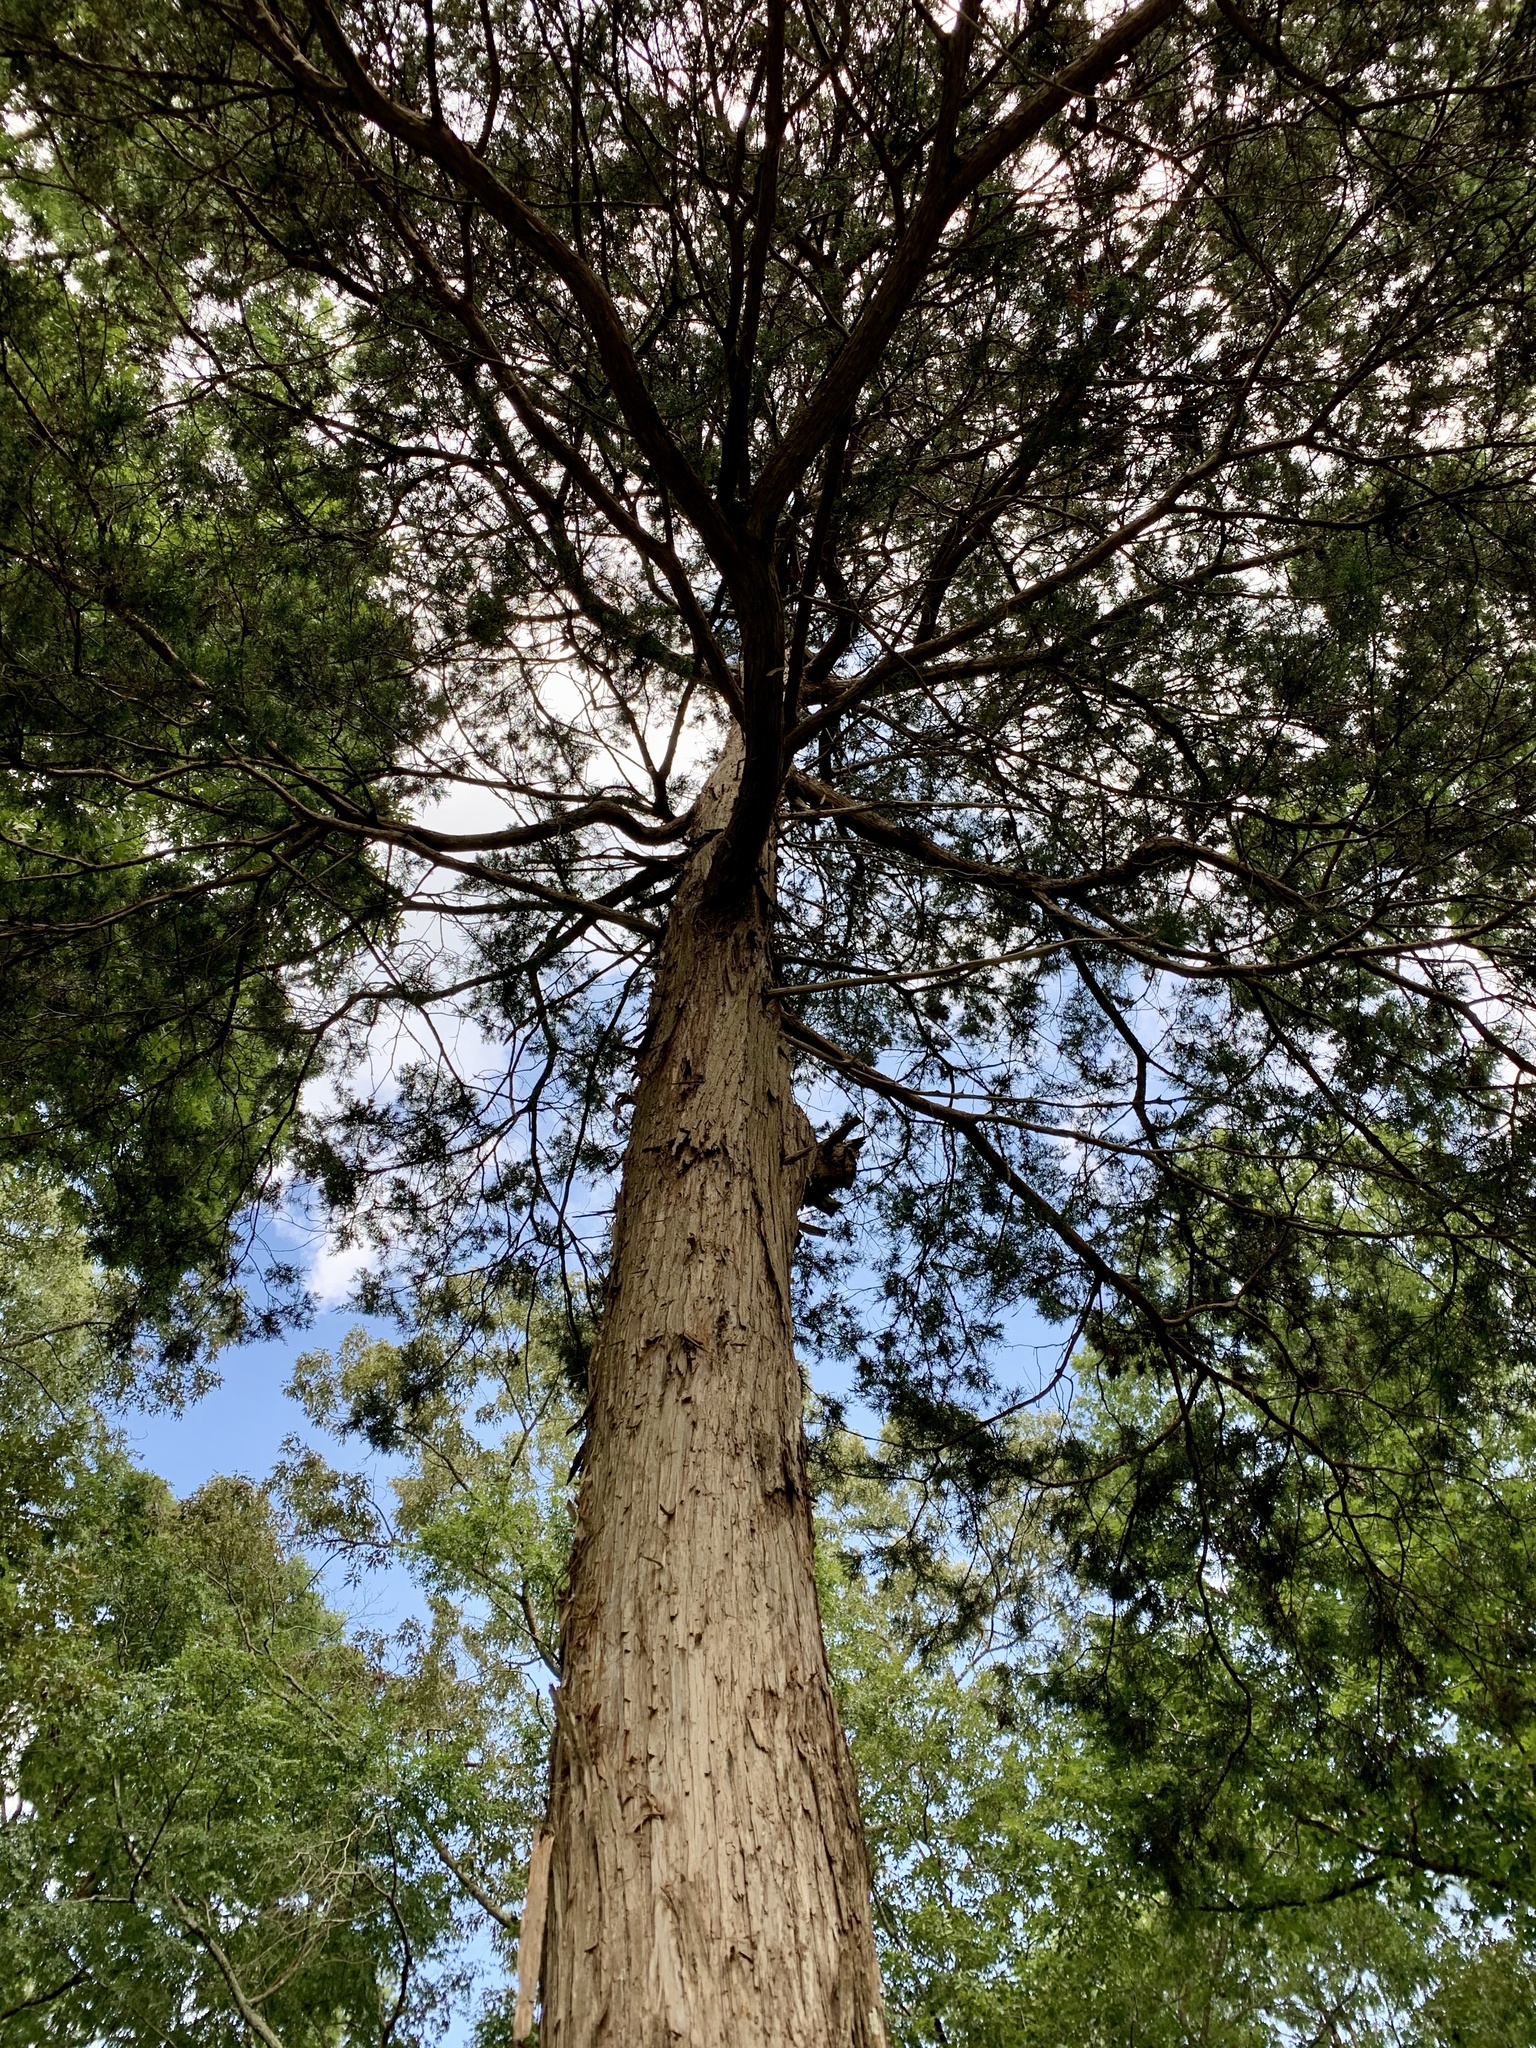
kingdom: Plantae
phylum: Tracheophyta
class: Pinopsida
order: Pinales
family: Cupressaceae
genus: Juniperus
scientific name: Juniperus virginiana
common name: Red juniper
